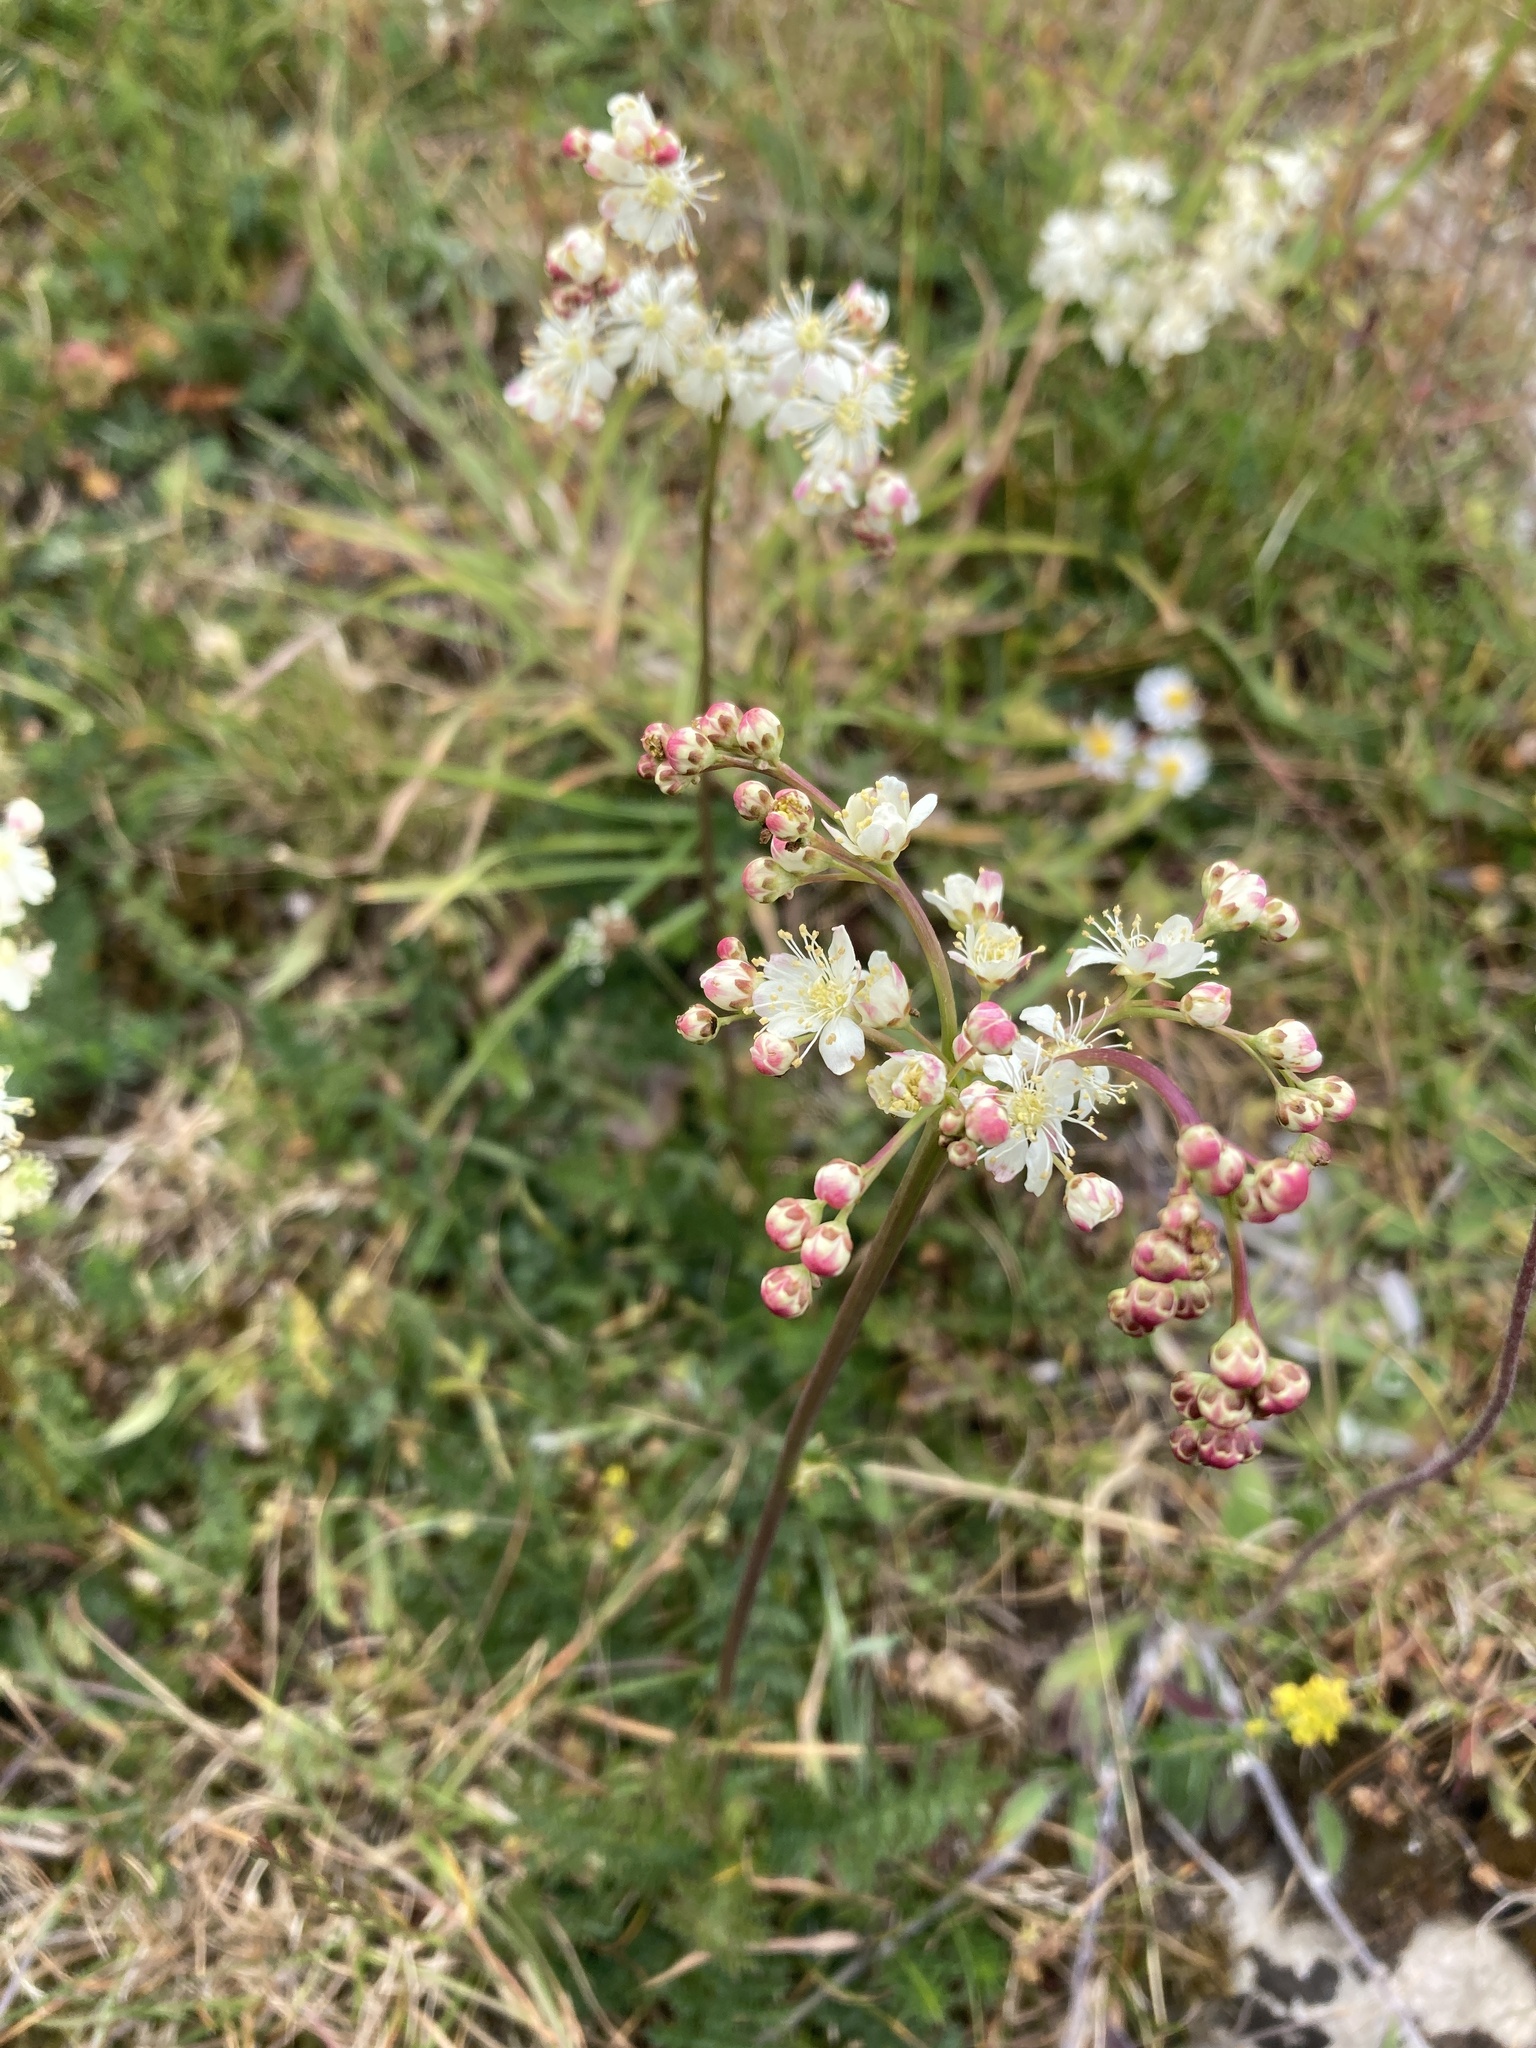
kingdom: Plantae
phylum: Tracheophyta
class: Magnoliopsida
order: Rosales
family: Rosaceae
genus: Filipendula
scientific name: Filipendula vulgaris
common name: Dropwort
